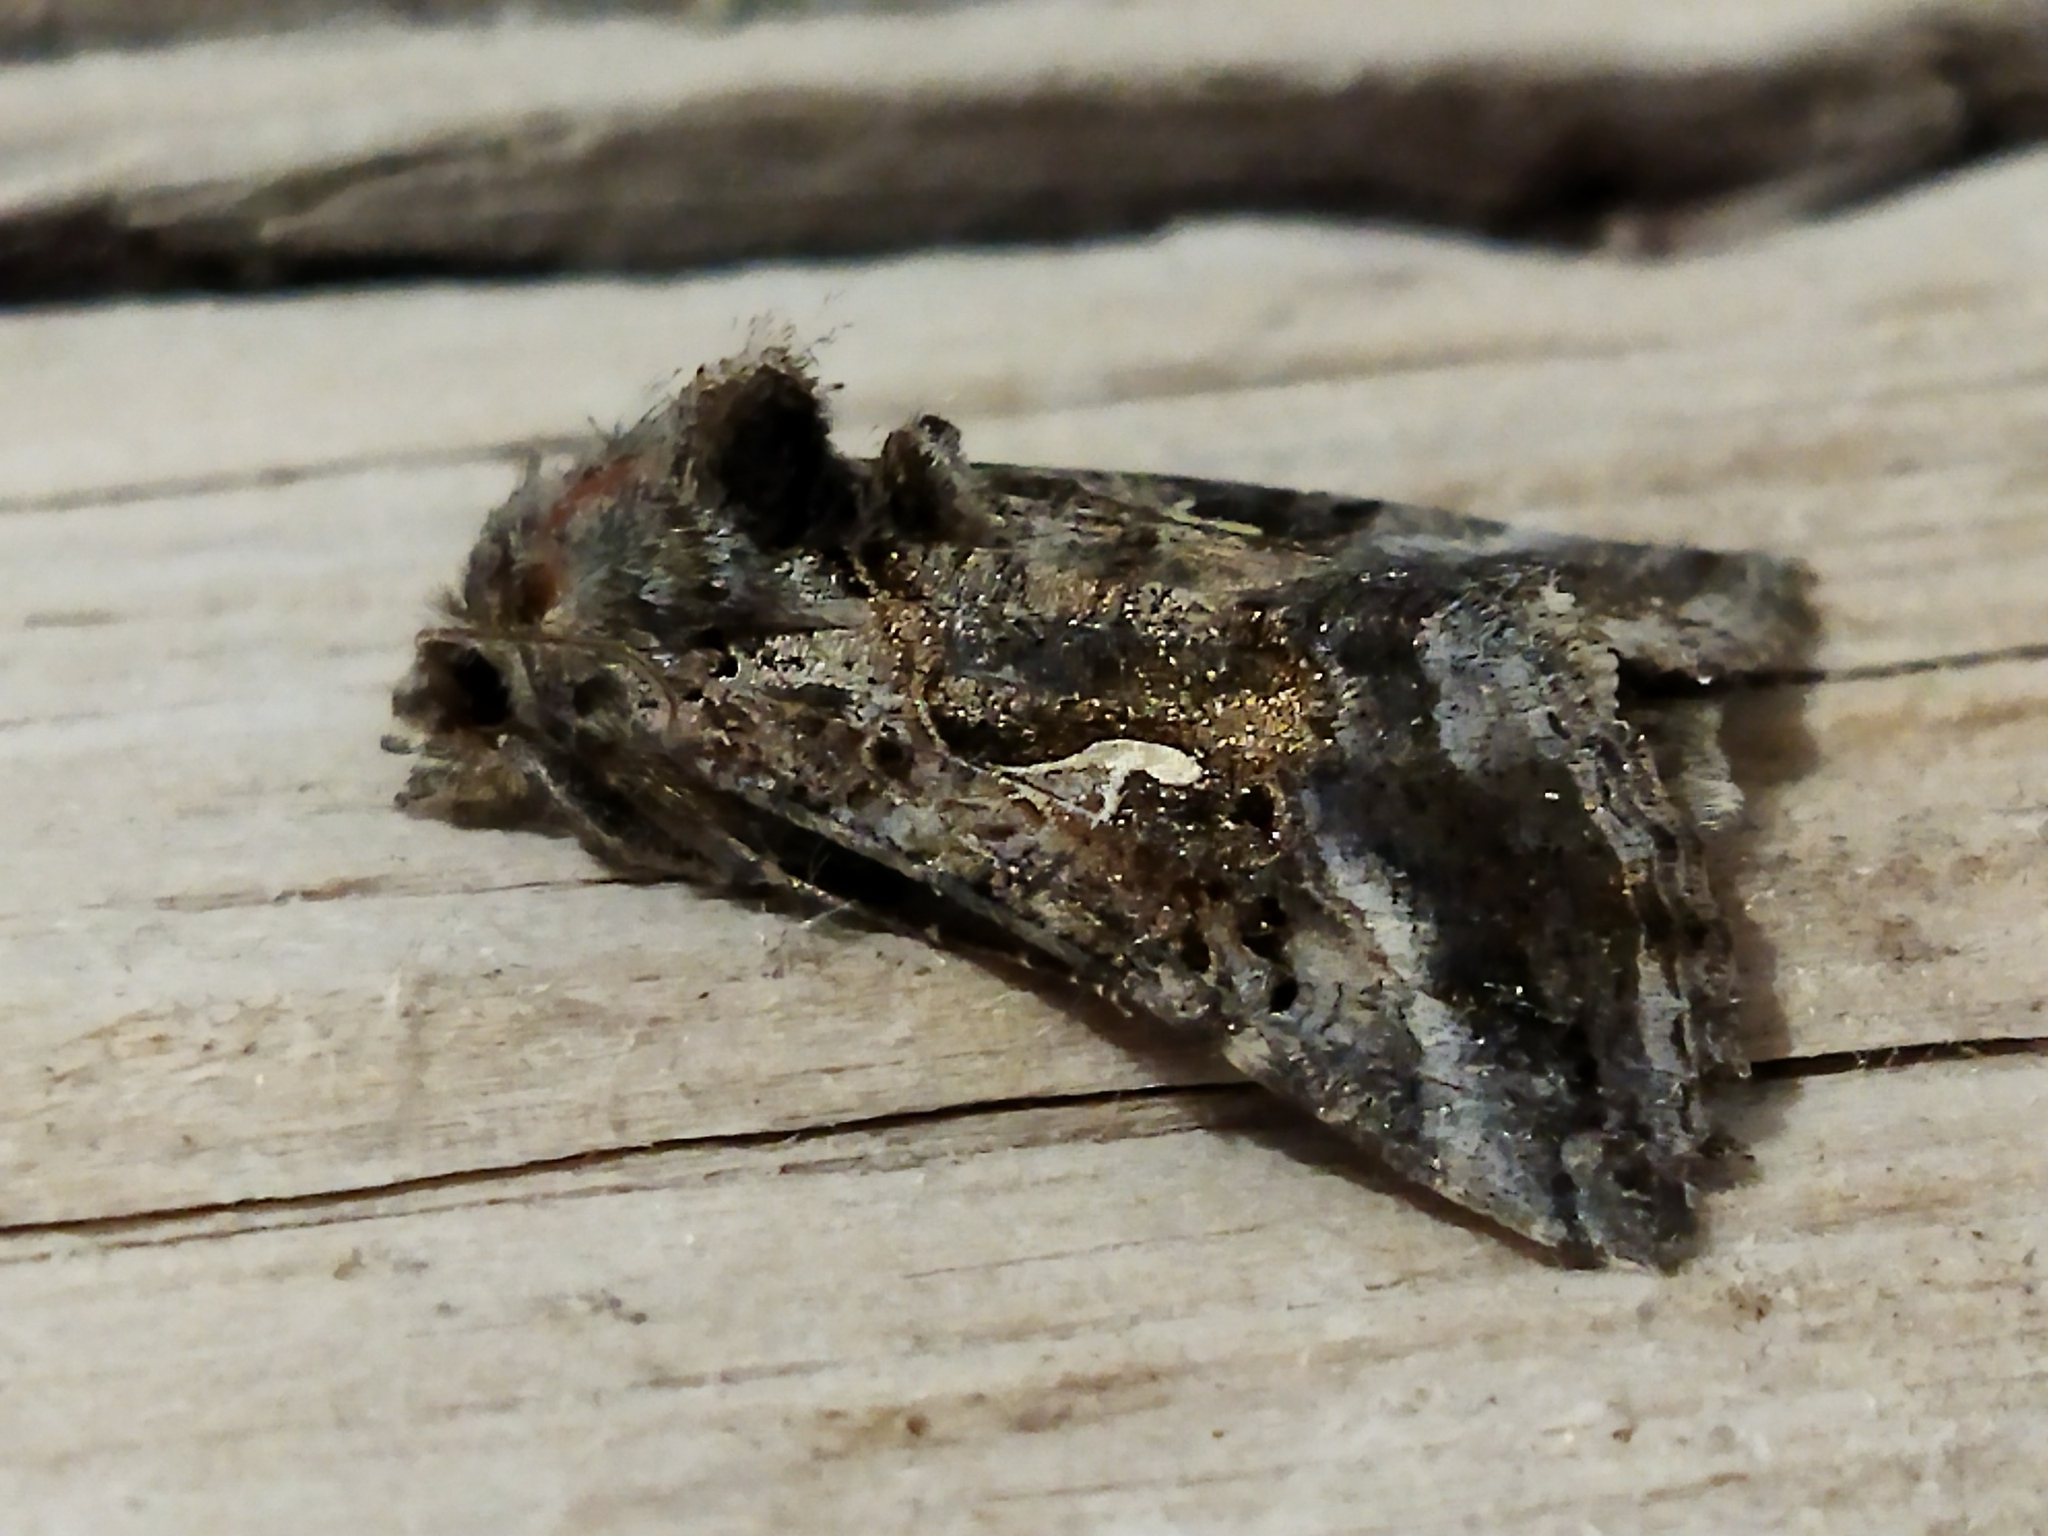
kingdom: Animalia
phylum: Arthropoda
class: Insecta
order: Lepidoptera
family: Noctuidae
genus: Autographa
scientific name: Autographa gamma
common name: Silver y
